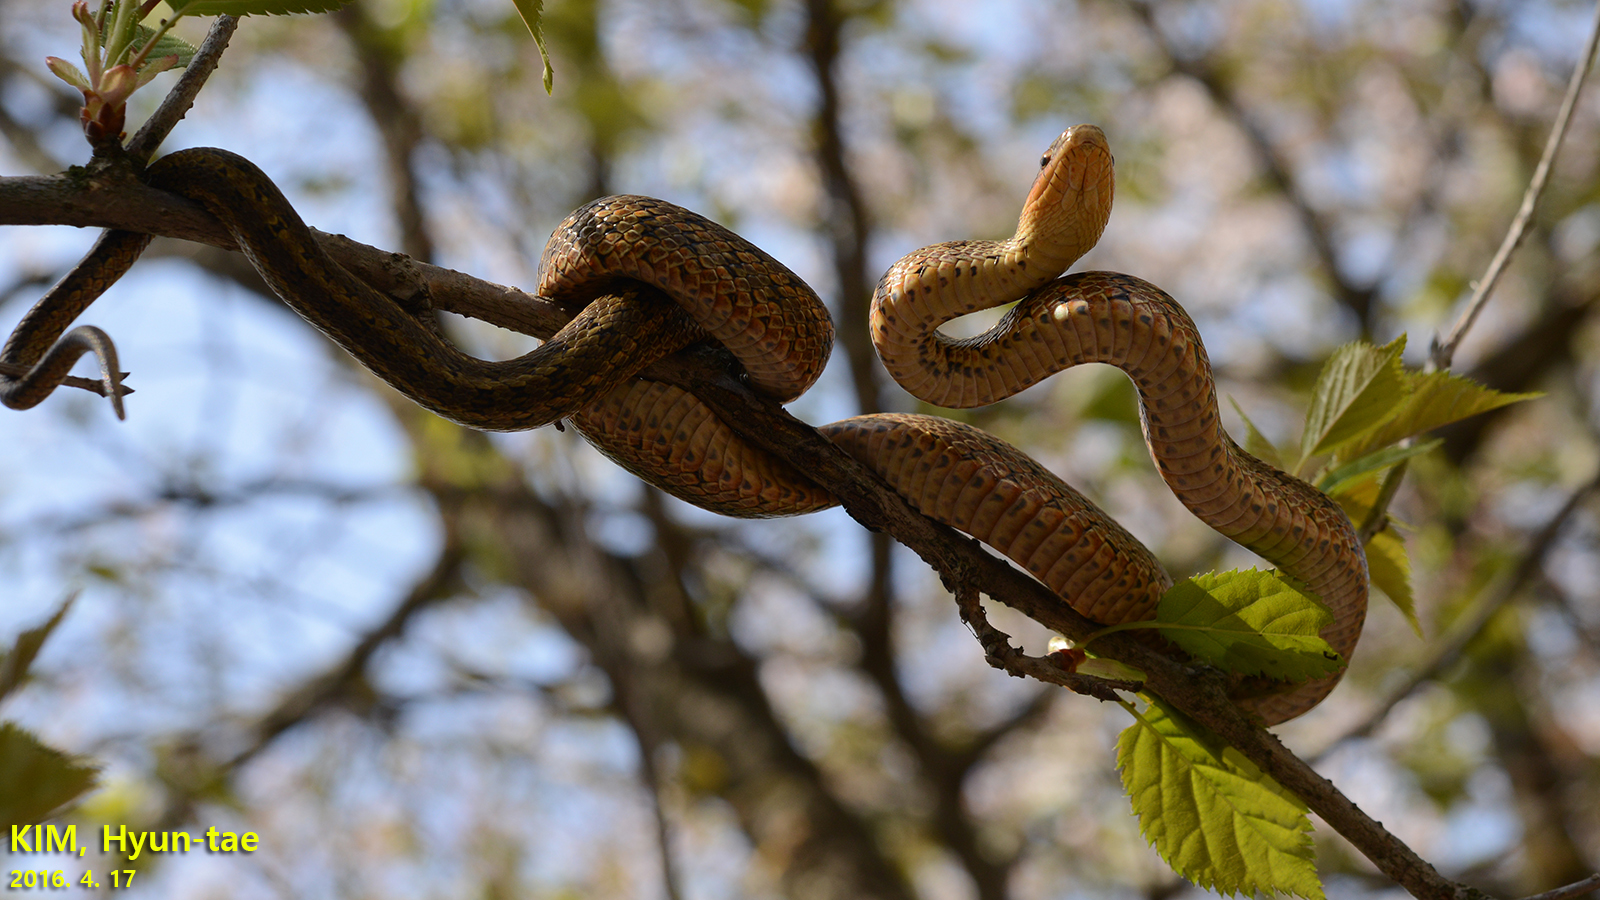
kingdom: Animalia
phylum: Chordata
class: Squamata
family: Colubridae
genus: Elaphe
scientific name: Elaphe dione
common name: Dione ratsnake
